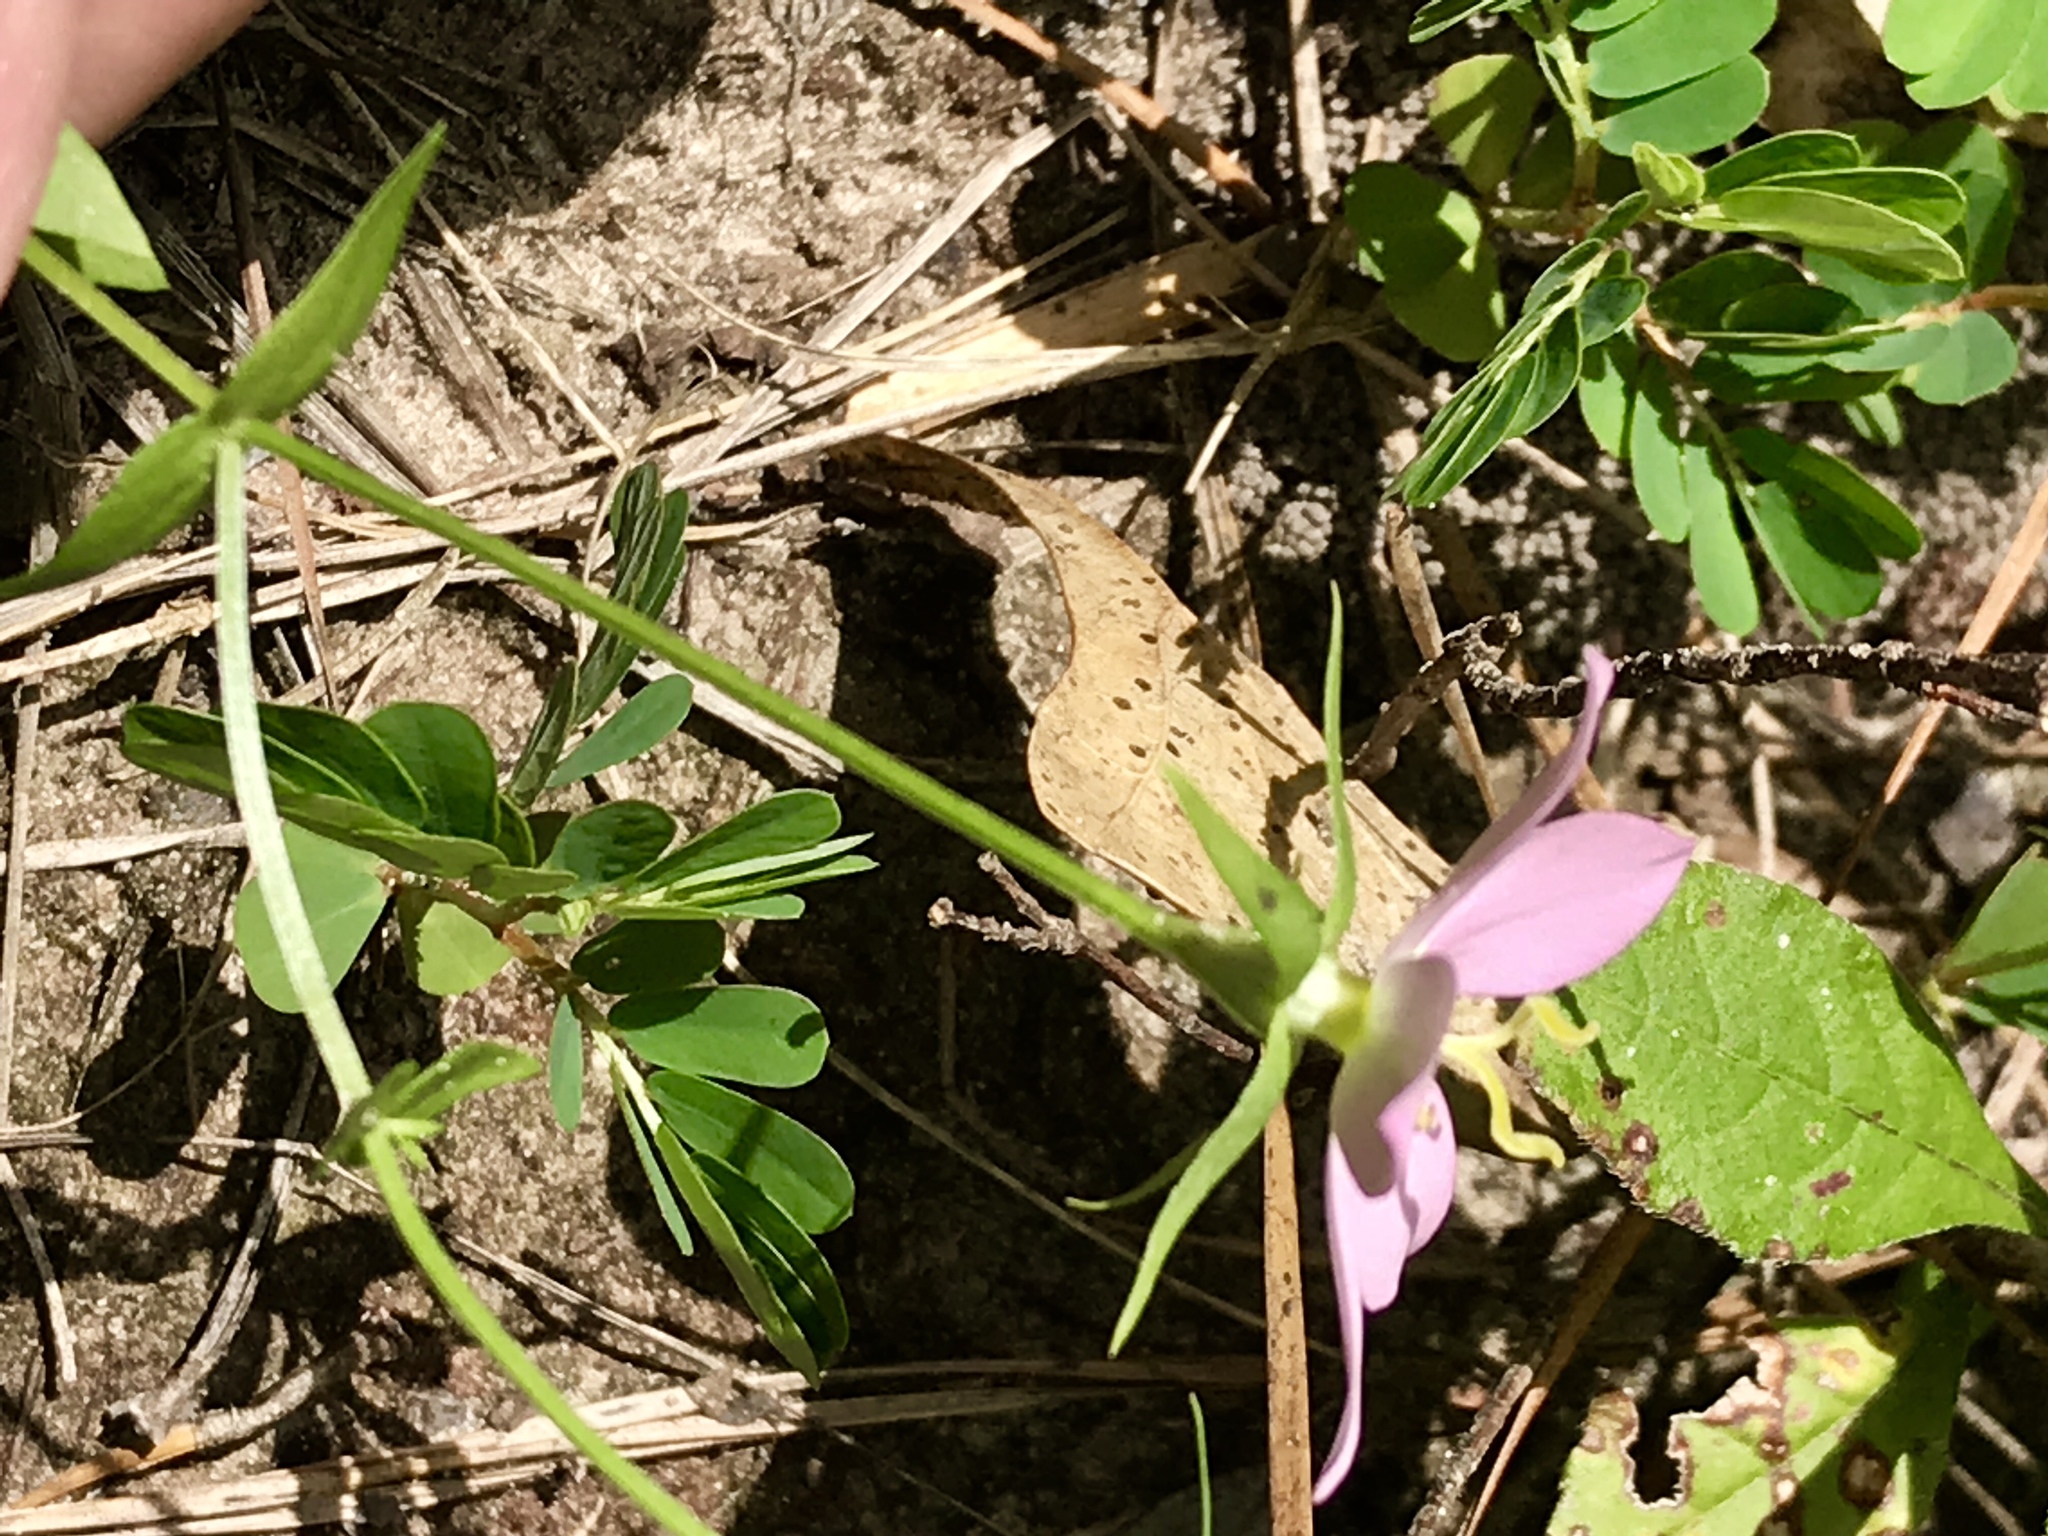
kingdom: Plantae
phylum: Tracheophyta
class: Magnoliopsida
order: Gentianales
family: Gentianaceae
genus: Sabatia
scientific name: Sabatia campestris
